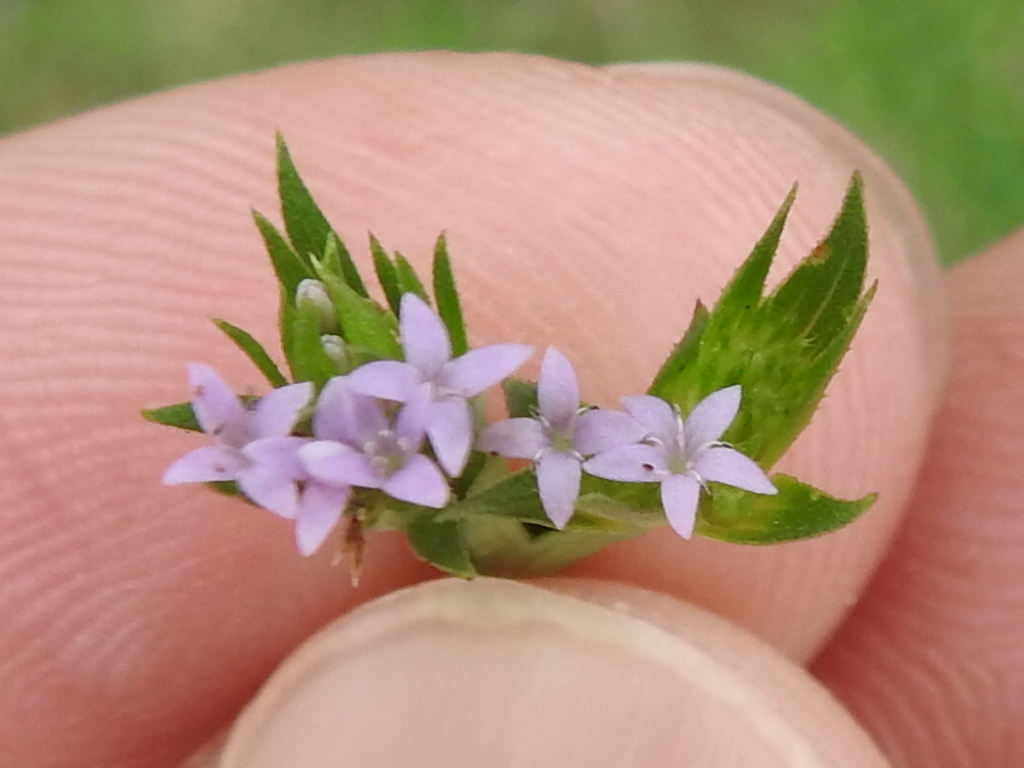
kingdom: Plantae
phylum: Tracheophyta
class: Magnoliopsida
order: Gentianales
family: Rubiaceae
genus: Sherardia
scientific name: Sherardia arvensis
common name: Field madder
